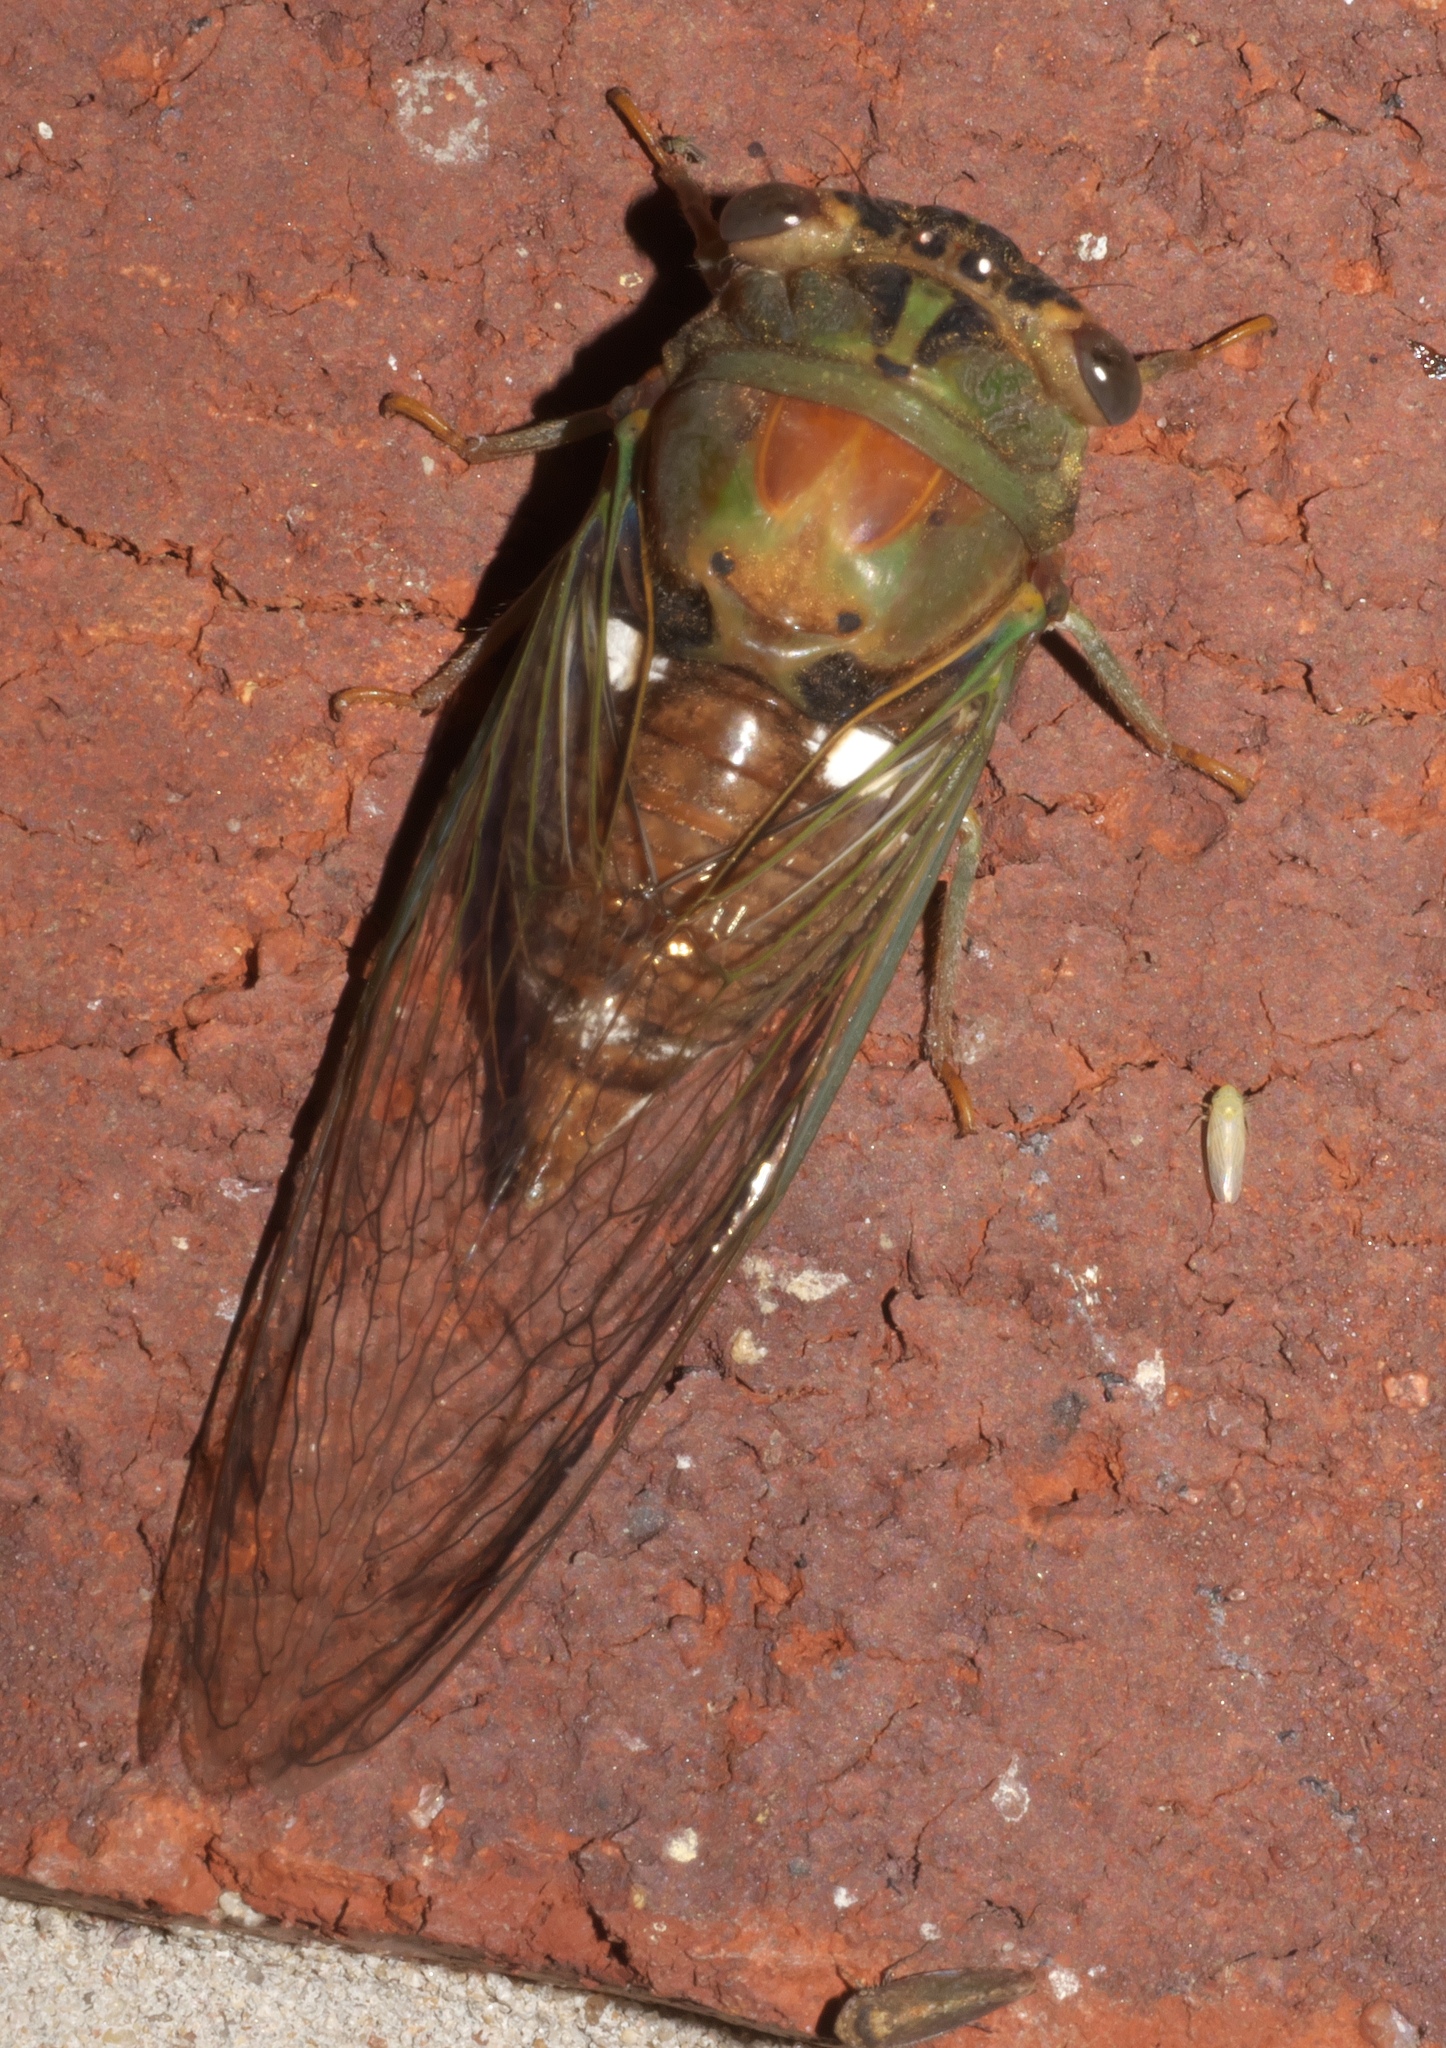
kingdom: Animalia
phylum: Arthropoda
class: Insecta
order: Hemiptera
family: Cicadidae
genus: Neotibicen
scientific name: Neotibicen pruinosus
